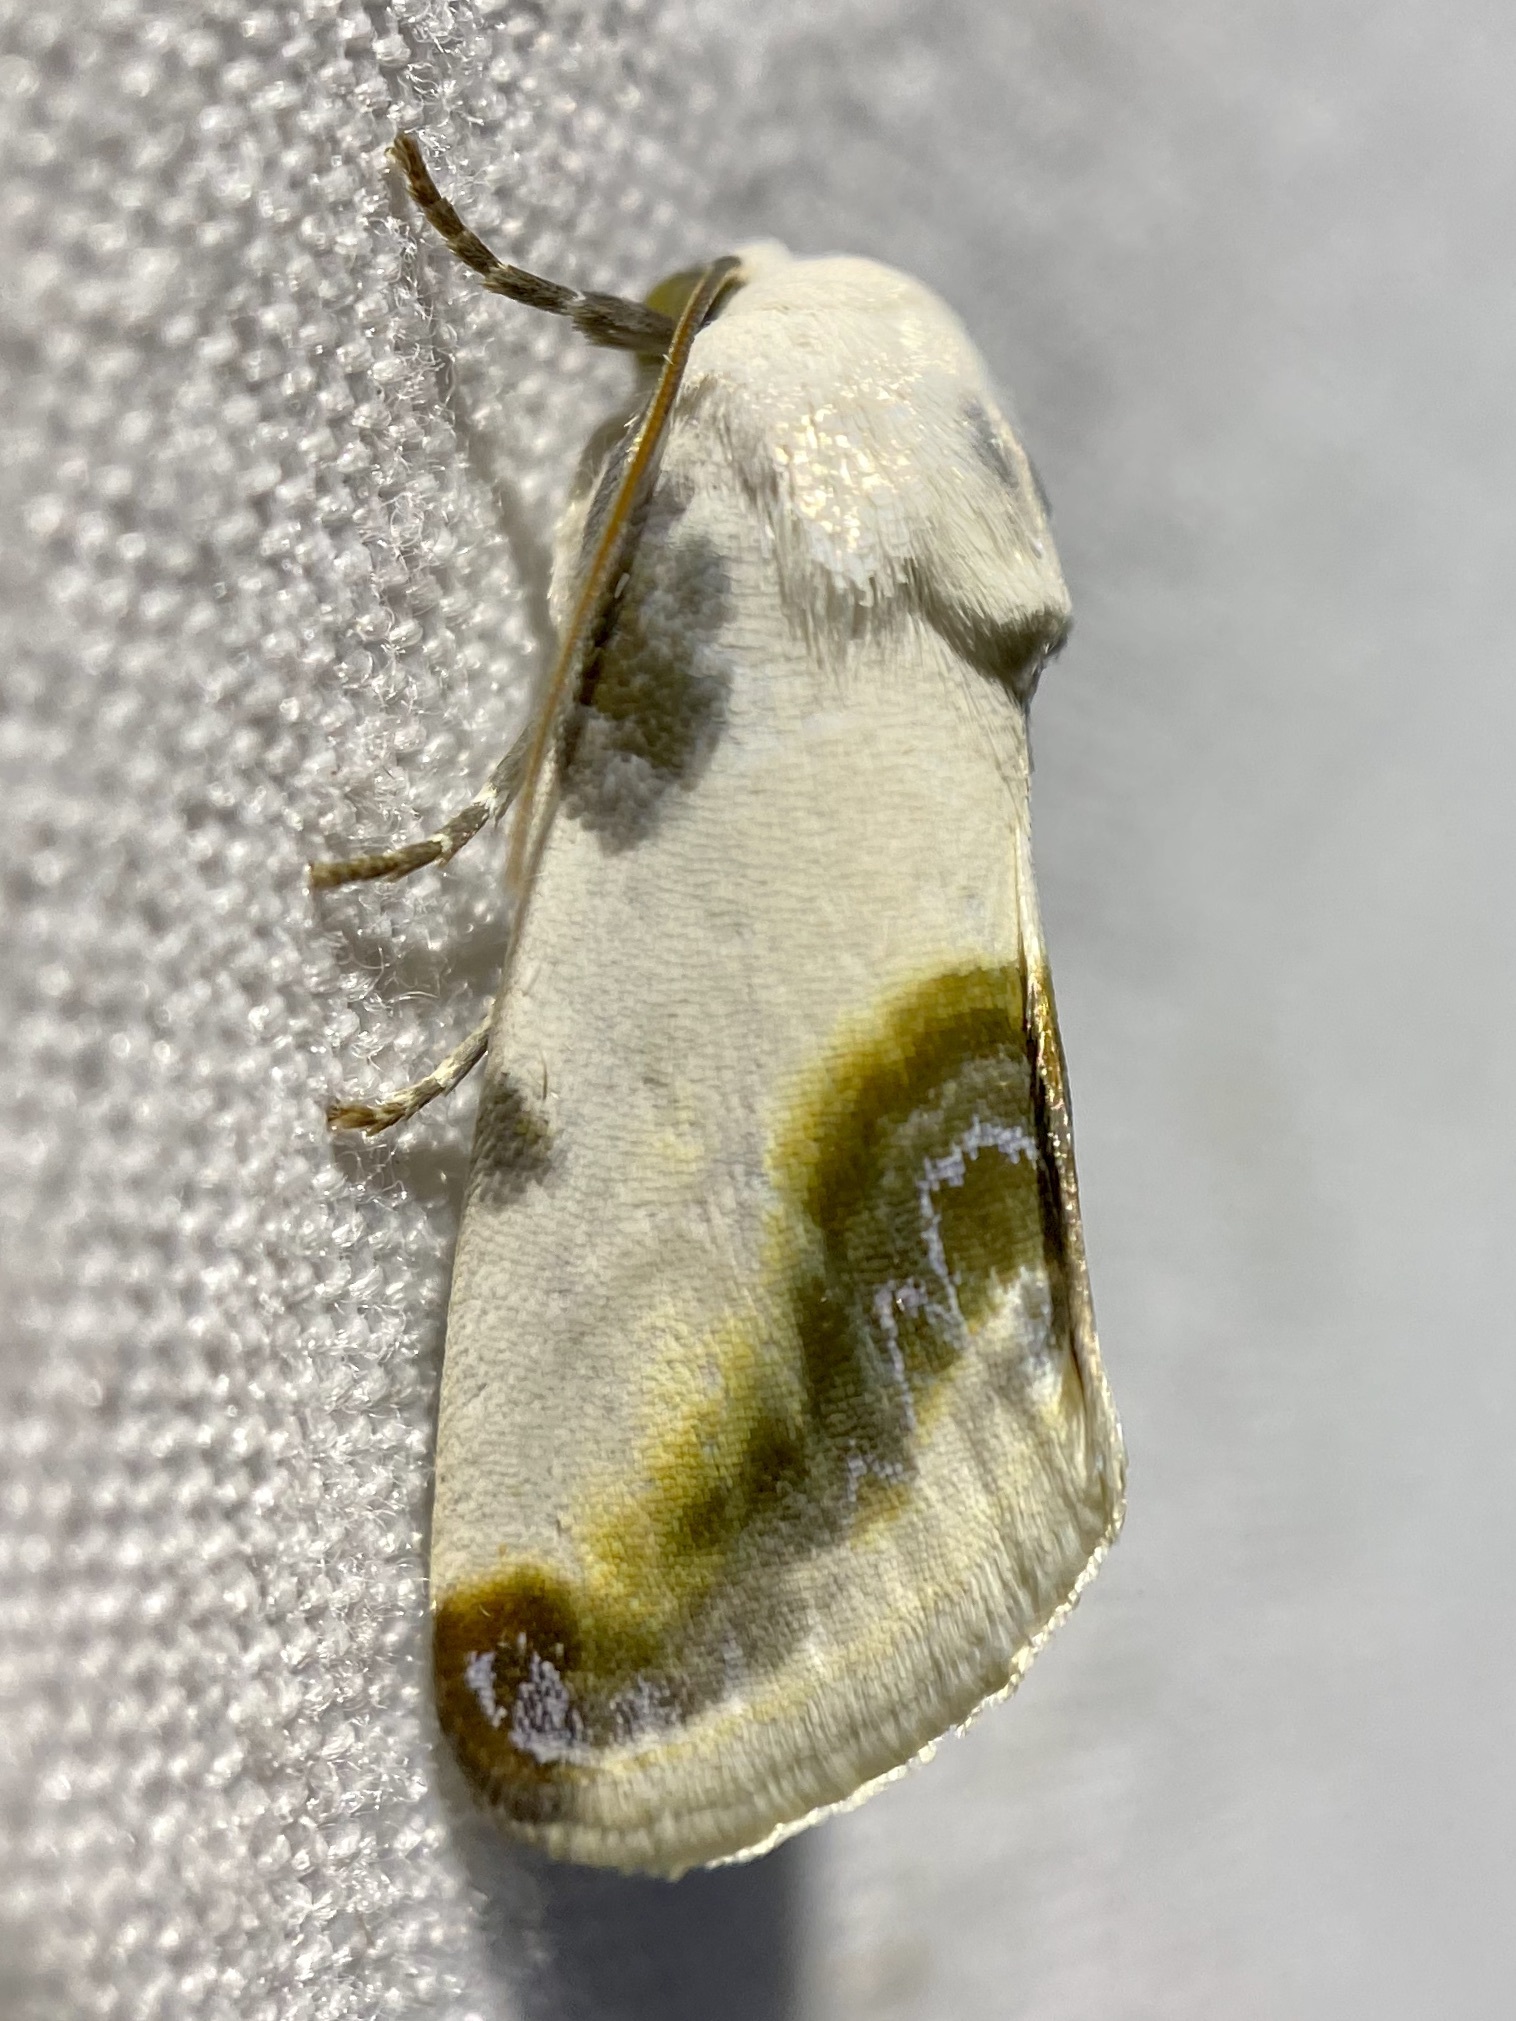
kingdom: Animalia
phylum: Arthropoda
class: Insecta
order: Lepidoptera
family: Noctuidae
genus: Acontia
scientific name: Acontia chea
